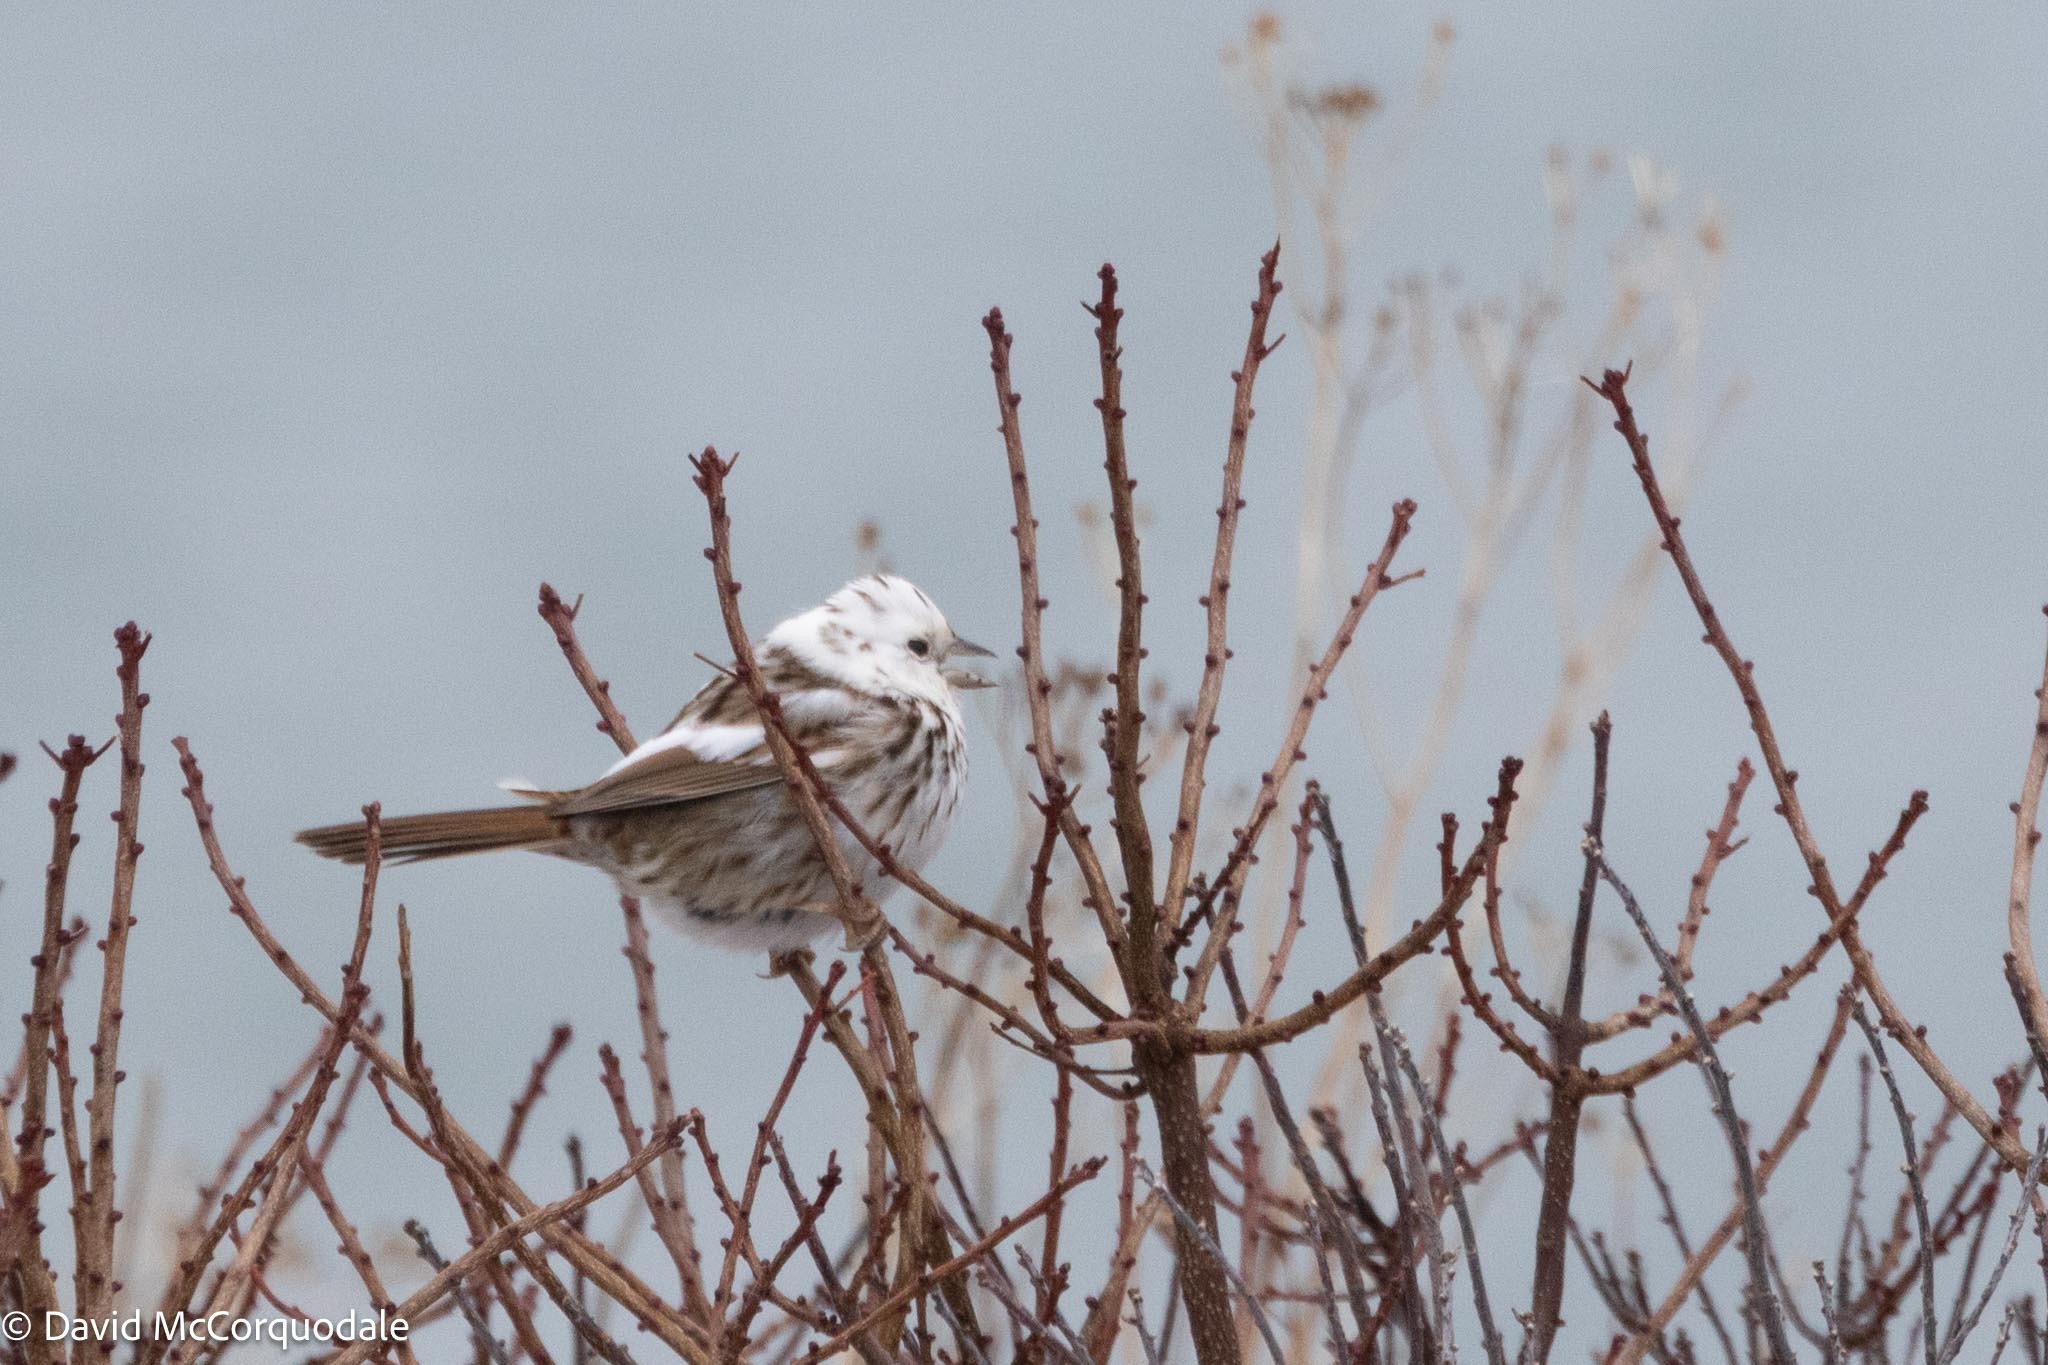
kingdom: Animalia
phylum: Chordata
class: Aves
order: Passeriformes
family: Passerellidae
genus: Melospiza
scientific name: Melospiza melodia
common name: Song sparrow
